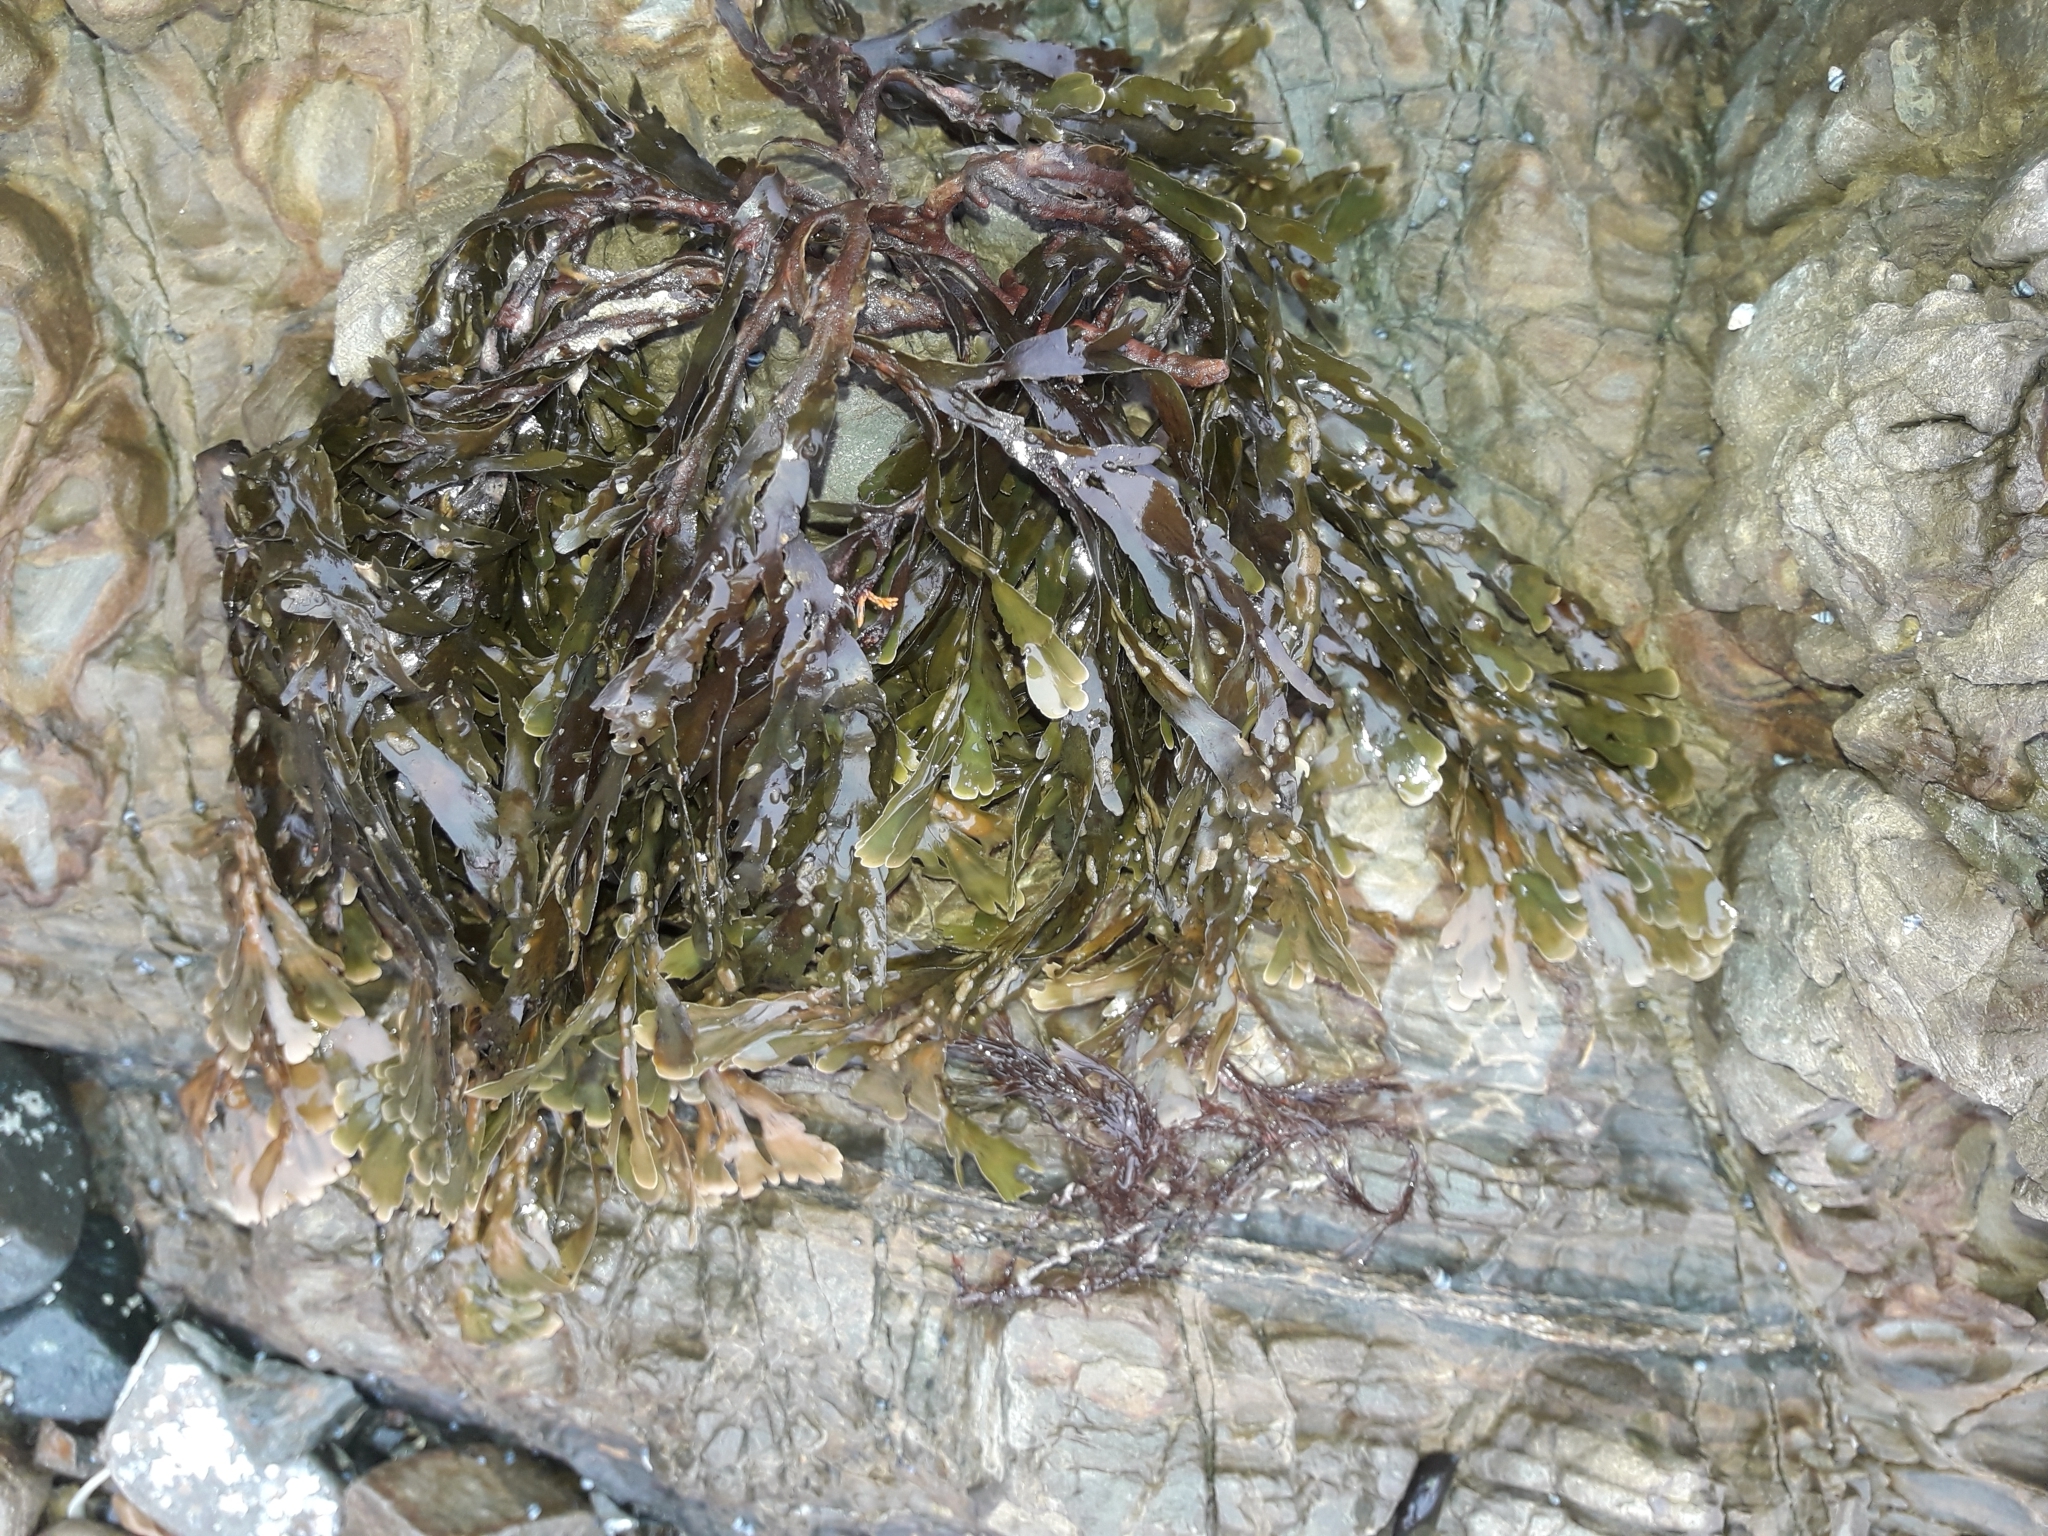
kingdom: Chromista
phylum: Ochrophyta
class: Phaeophyceae
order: Dictyotales
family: Dictyotaceae
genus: Zonaria
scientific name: Zonaria turneriana
